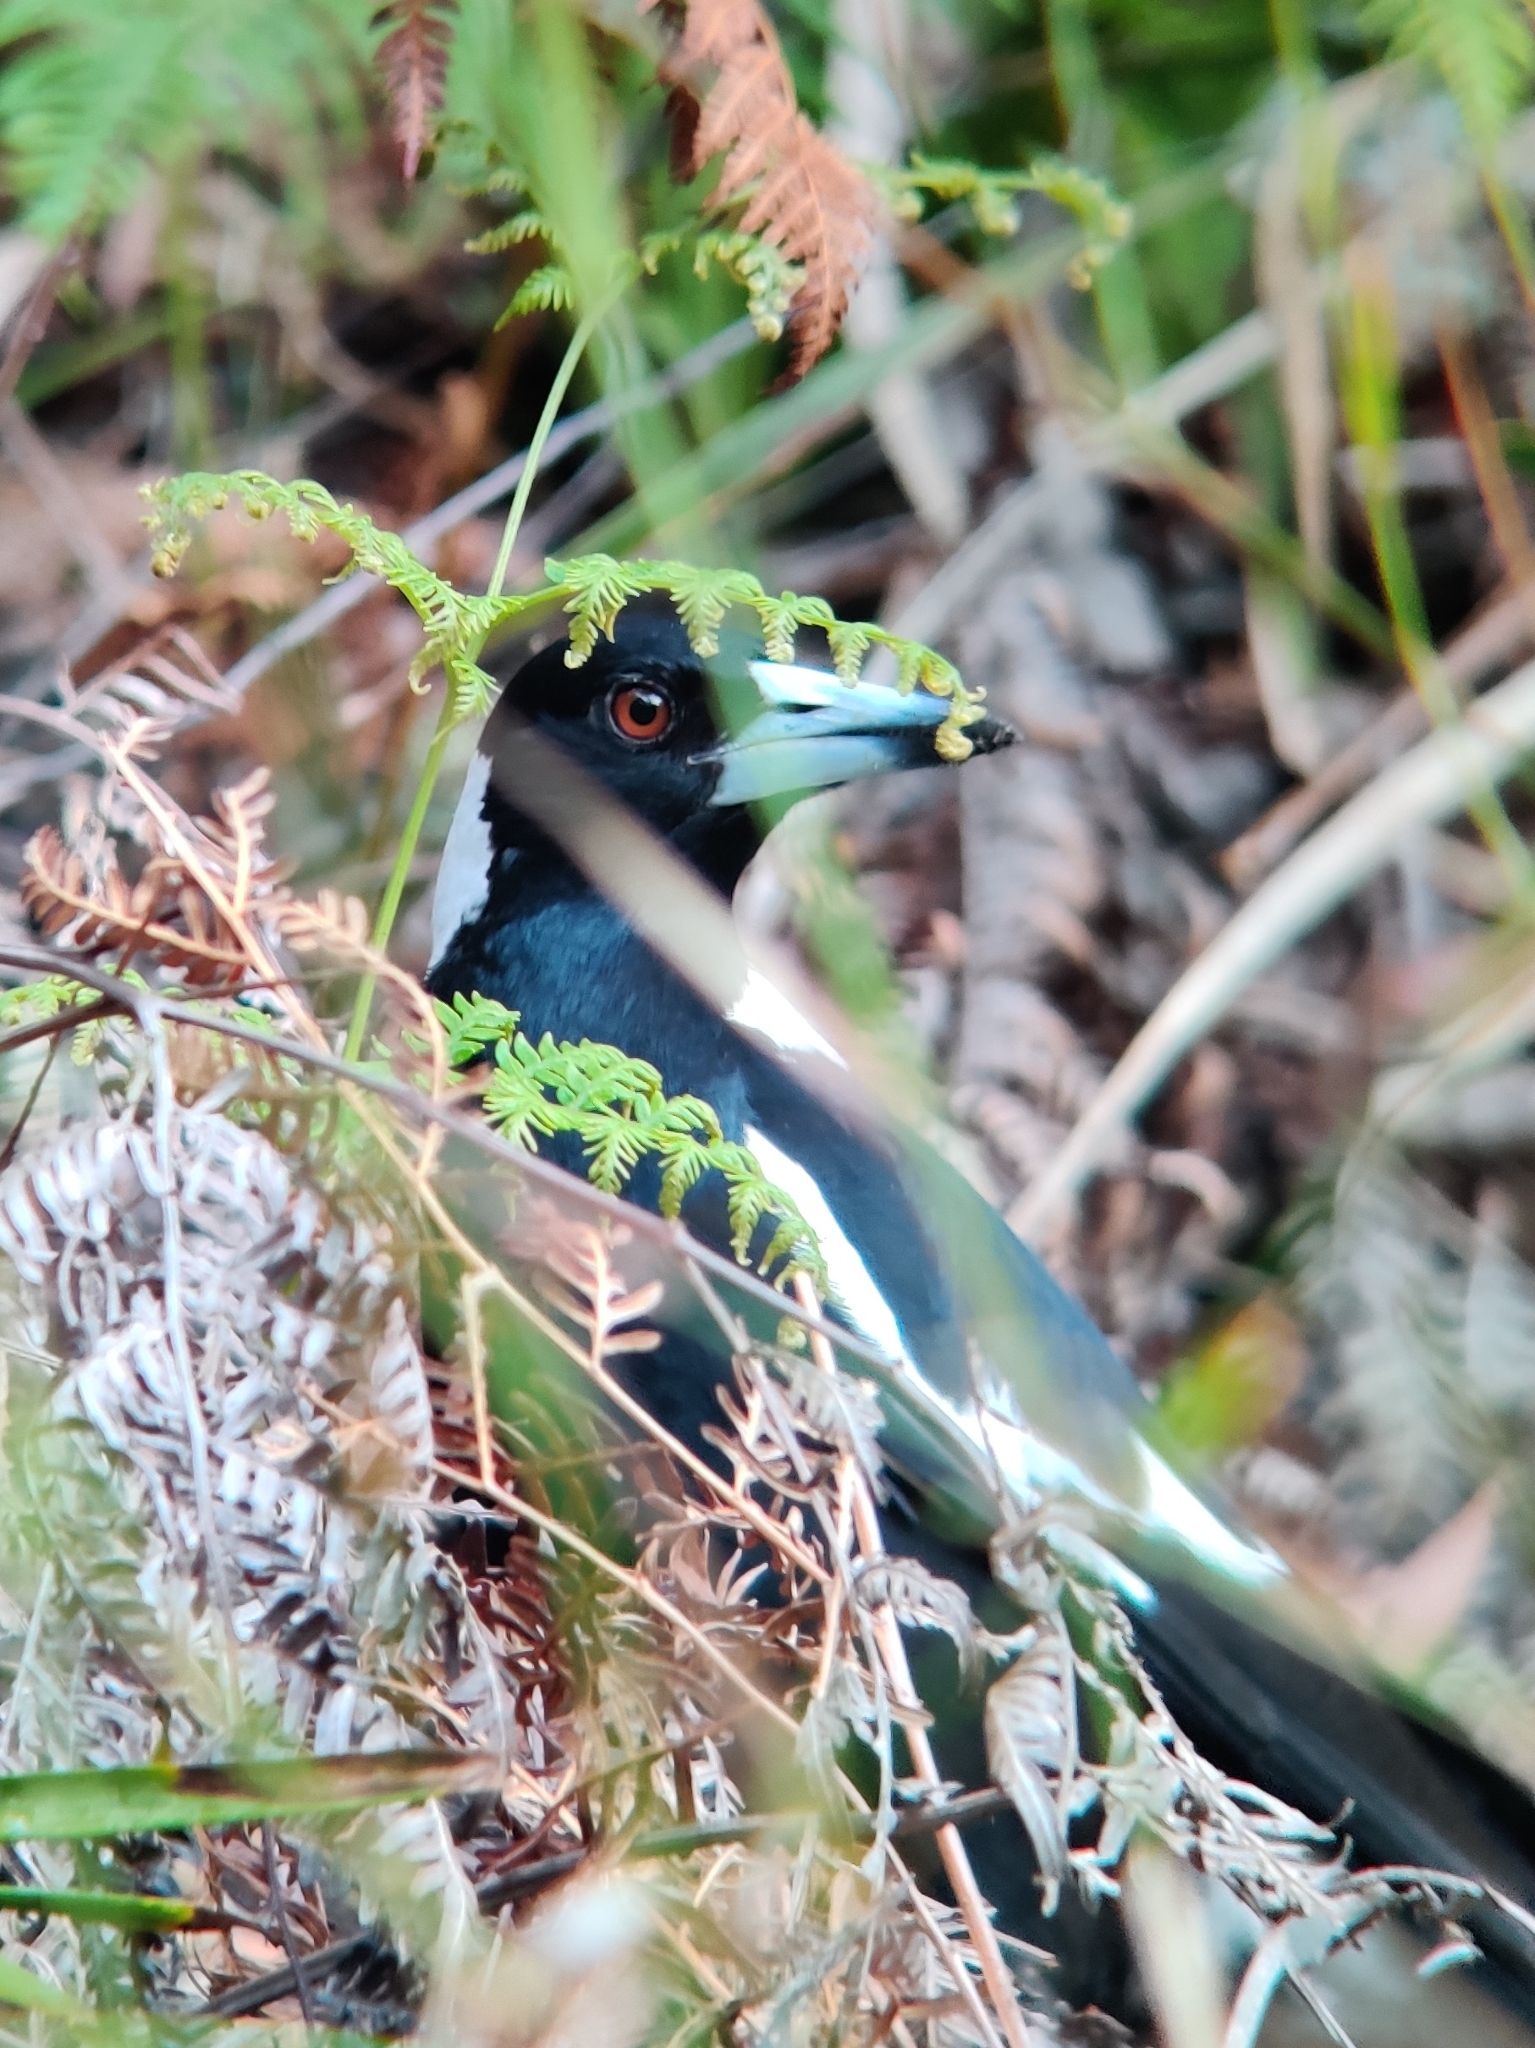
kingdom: Animalia
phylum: Chordata
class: Aves
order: Passeriformes
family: Cracticidae
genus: Gymnorhina
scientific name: Gymnorhina tibicen
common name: Australian magpie
